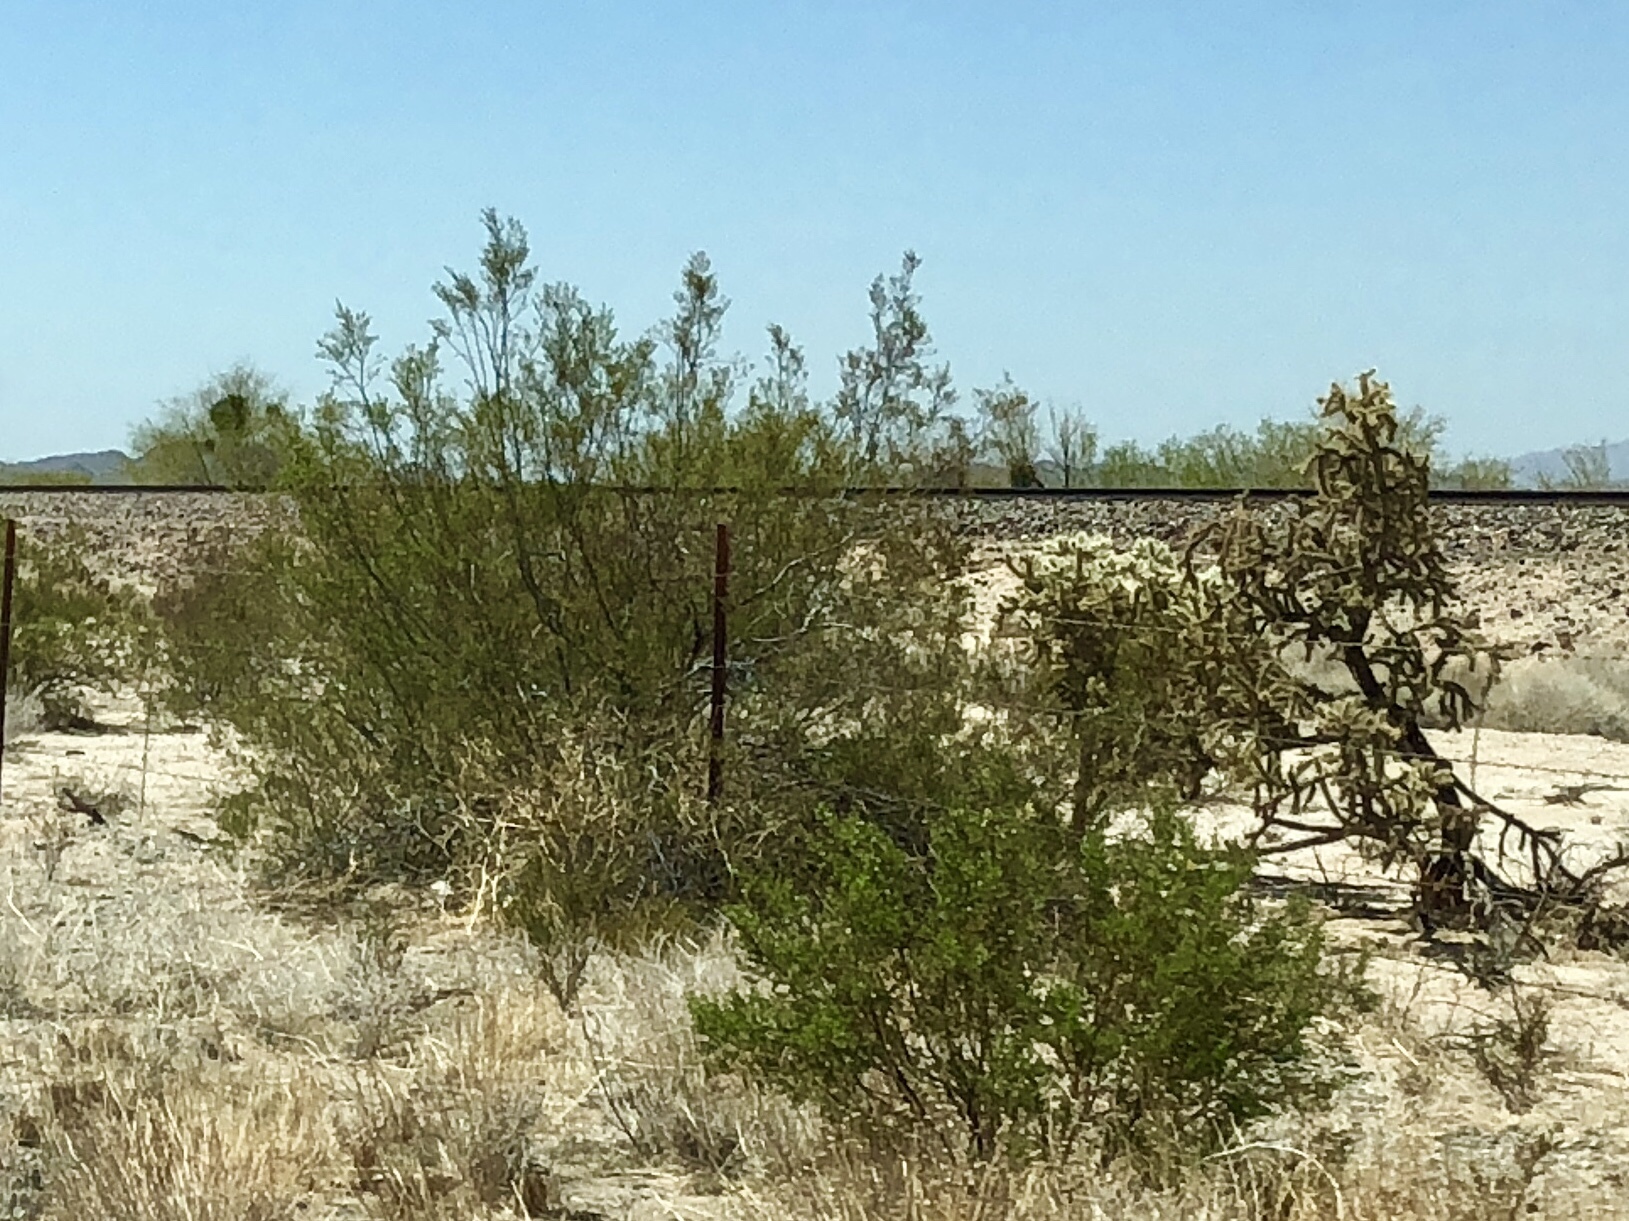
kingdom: Plantae
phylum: Tracheophyta
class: Magnoliopsida
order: Zygophyllales
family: Zygophyllaceae
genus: Larrea
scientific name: Larrea tridentata
